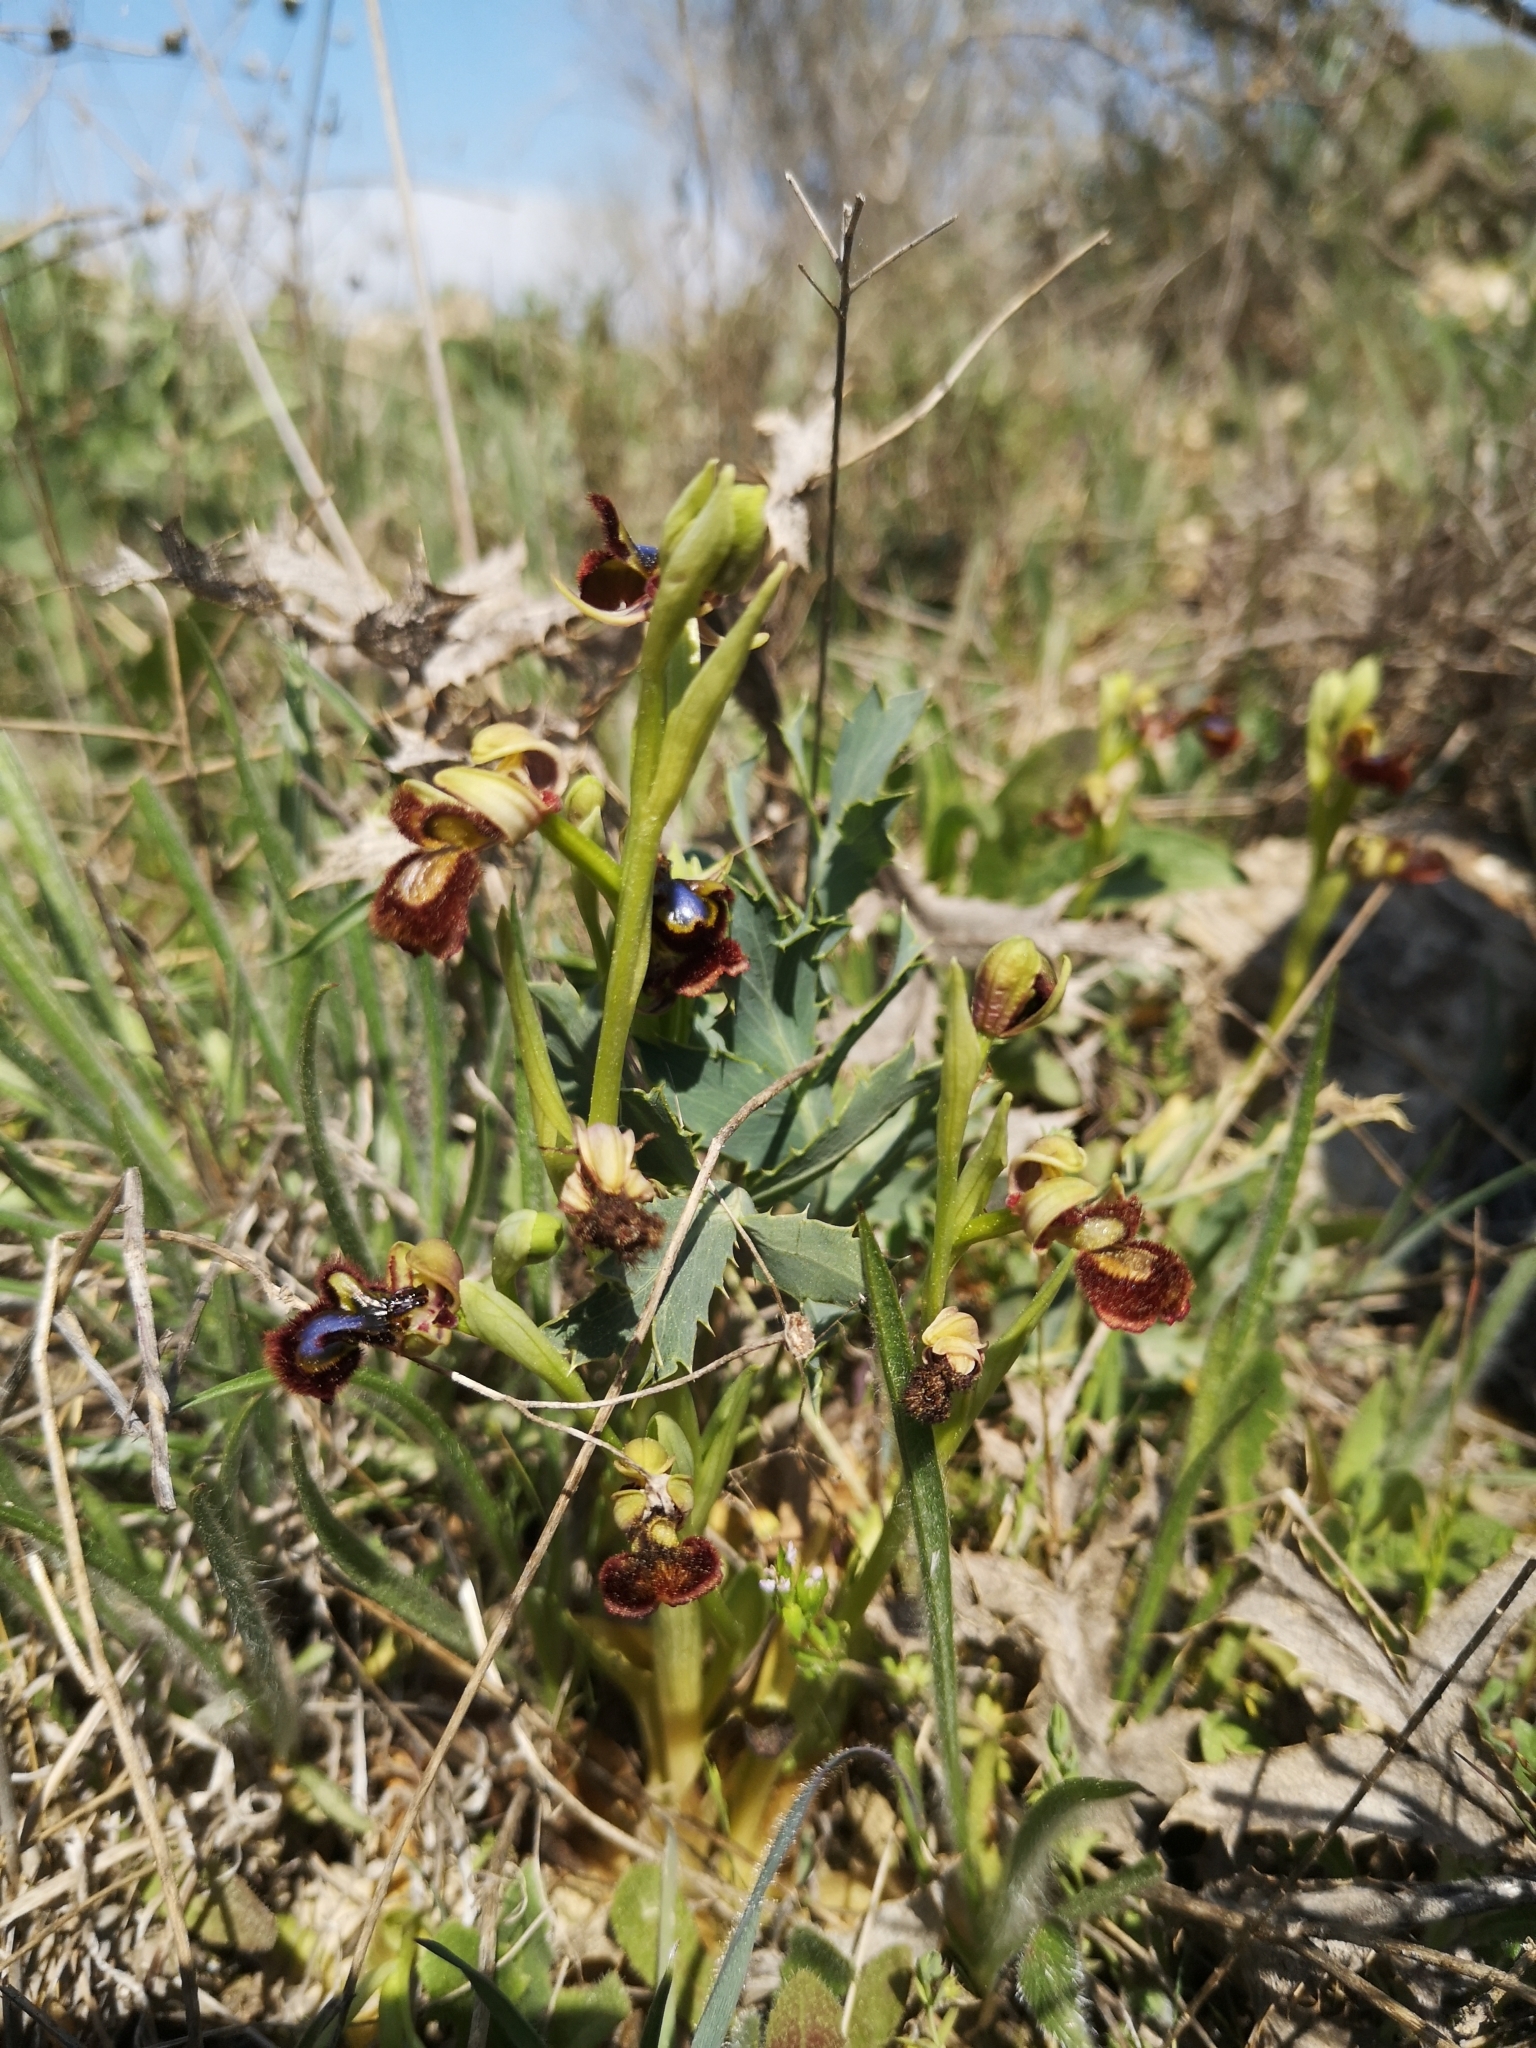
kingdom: Plantae
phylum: Tracheophyta
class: Liliopsida
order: Asparagales
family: Orchidaceae
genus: Ophrys
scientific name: Ophrys speculum
